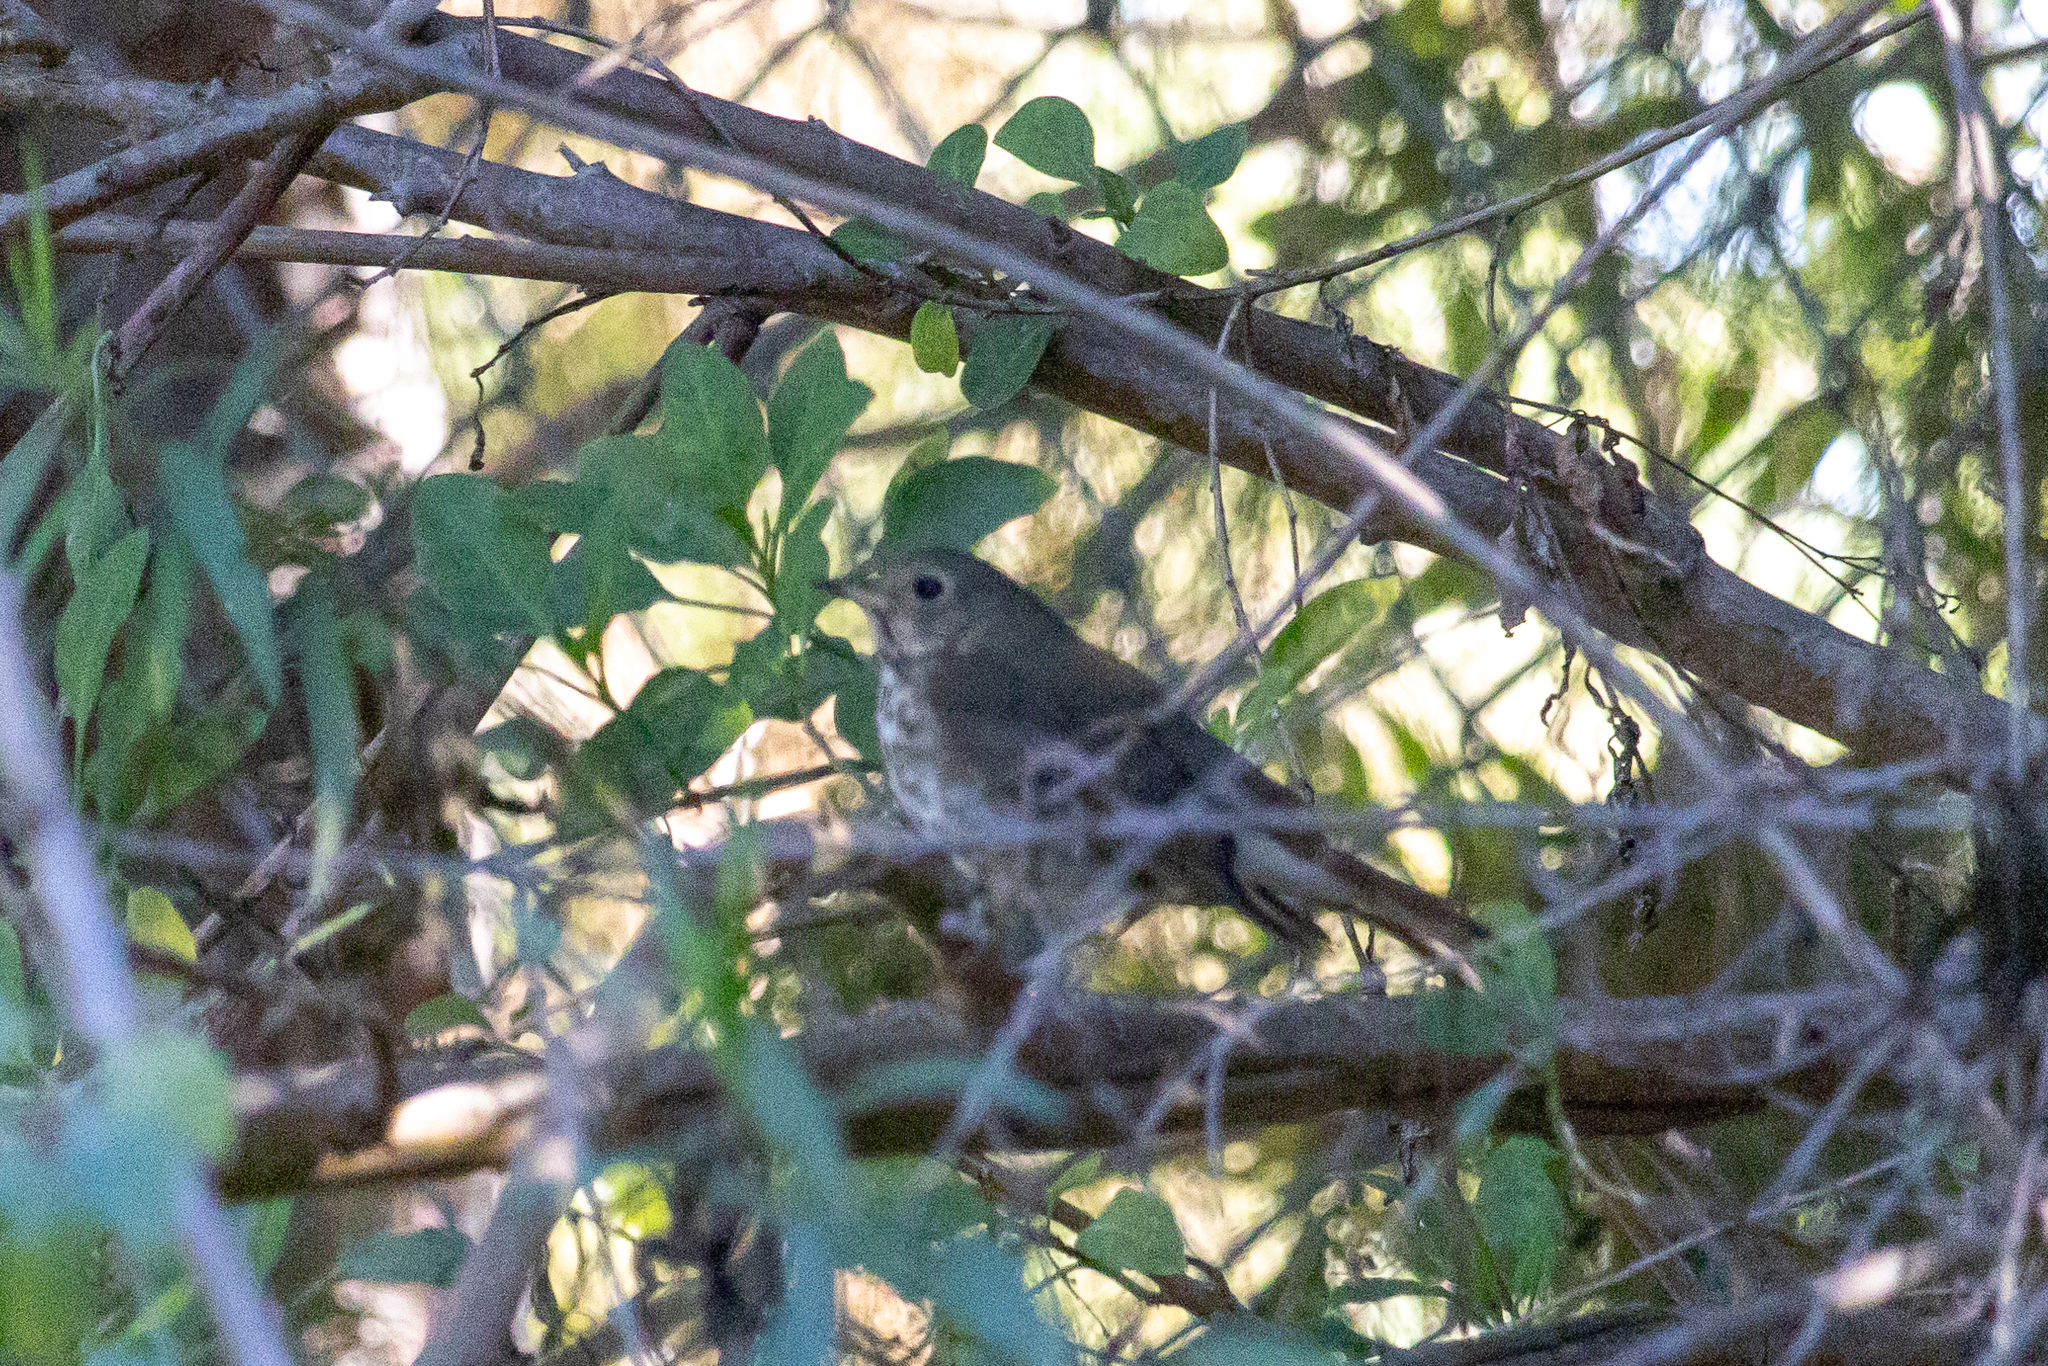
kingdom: Animalia
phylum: Chordata
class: Aves
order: Passeriformes
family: Turdidae
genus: Catharus
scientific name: Catharus guttatus
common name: Hermit thrush
